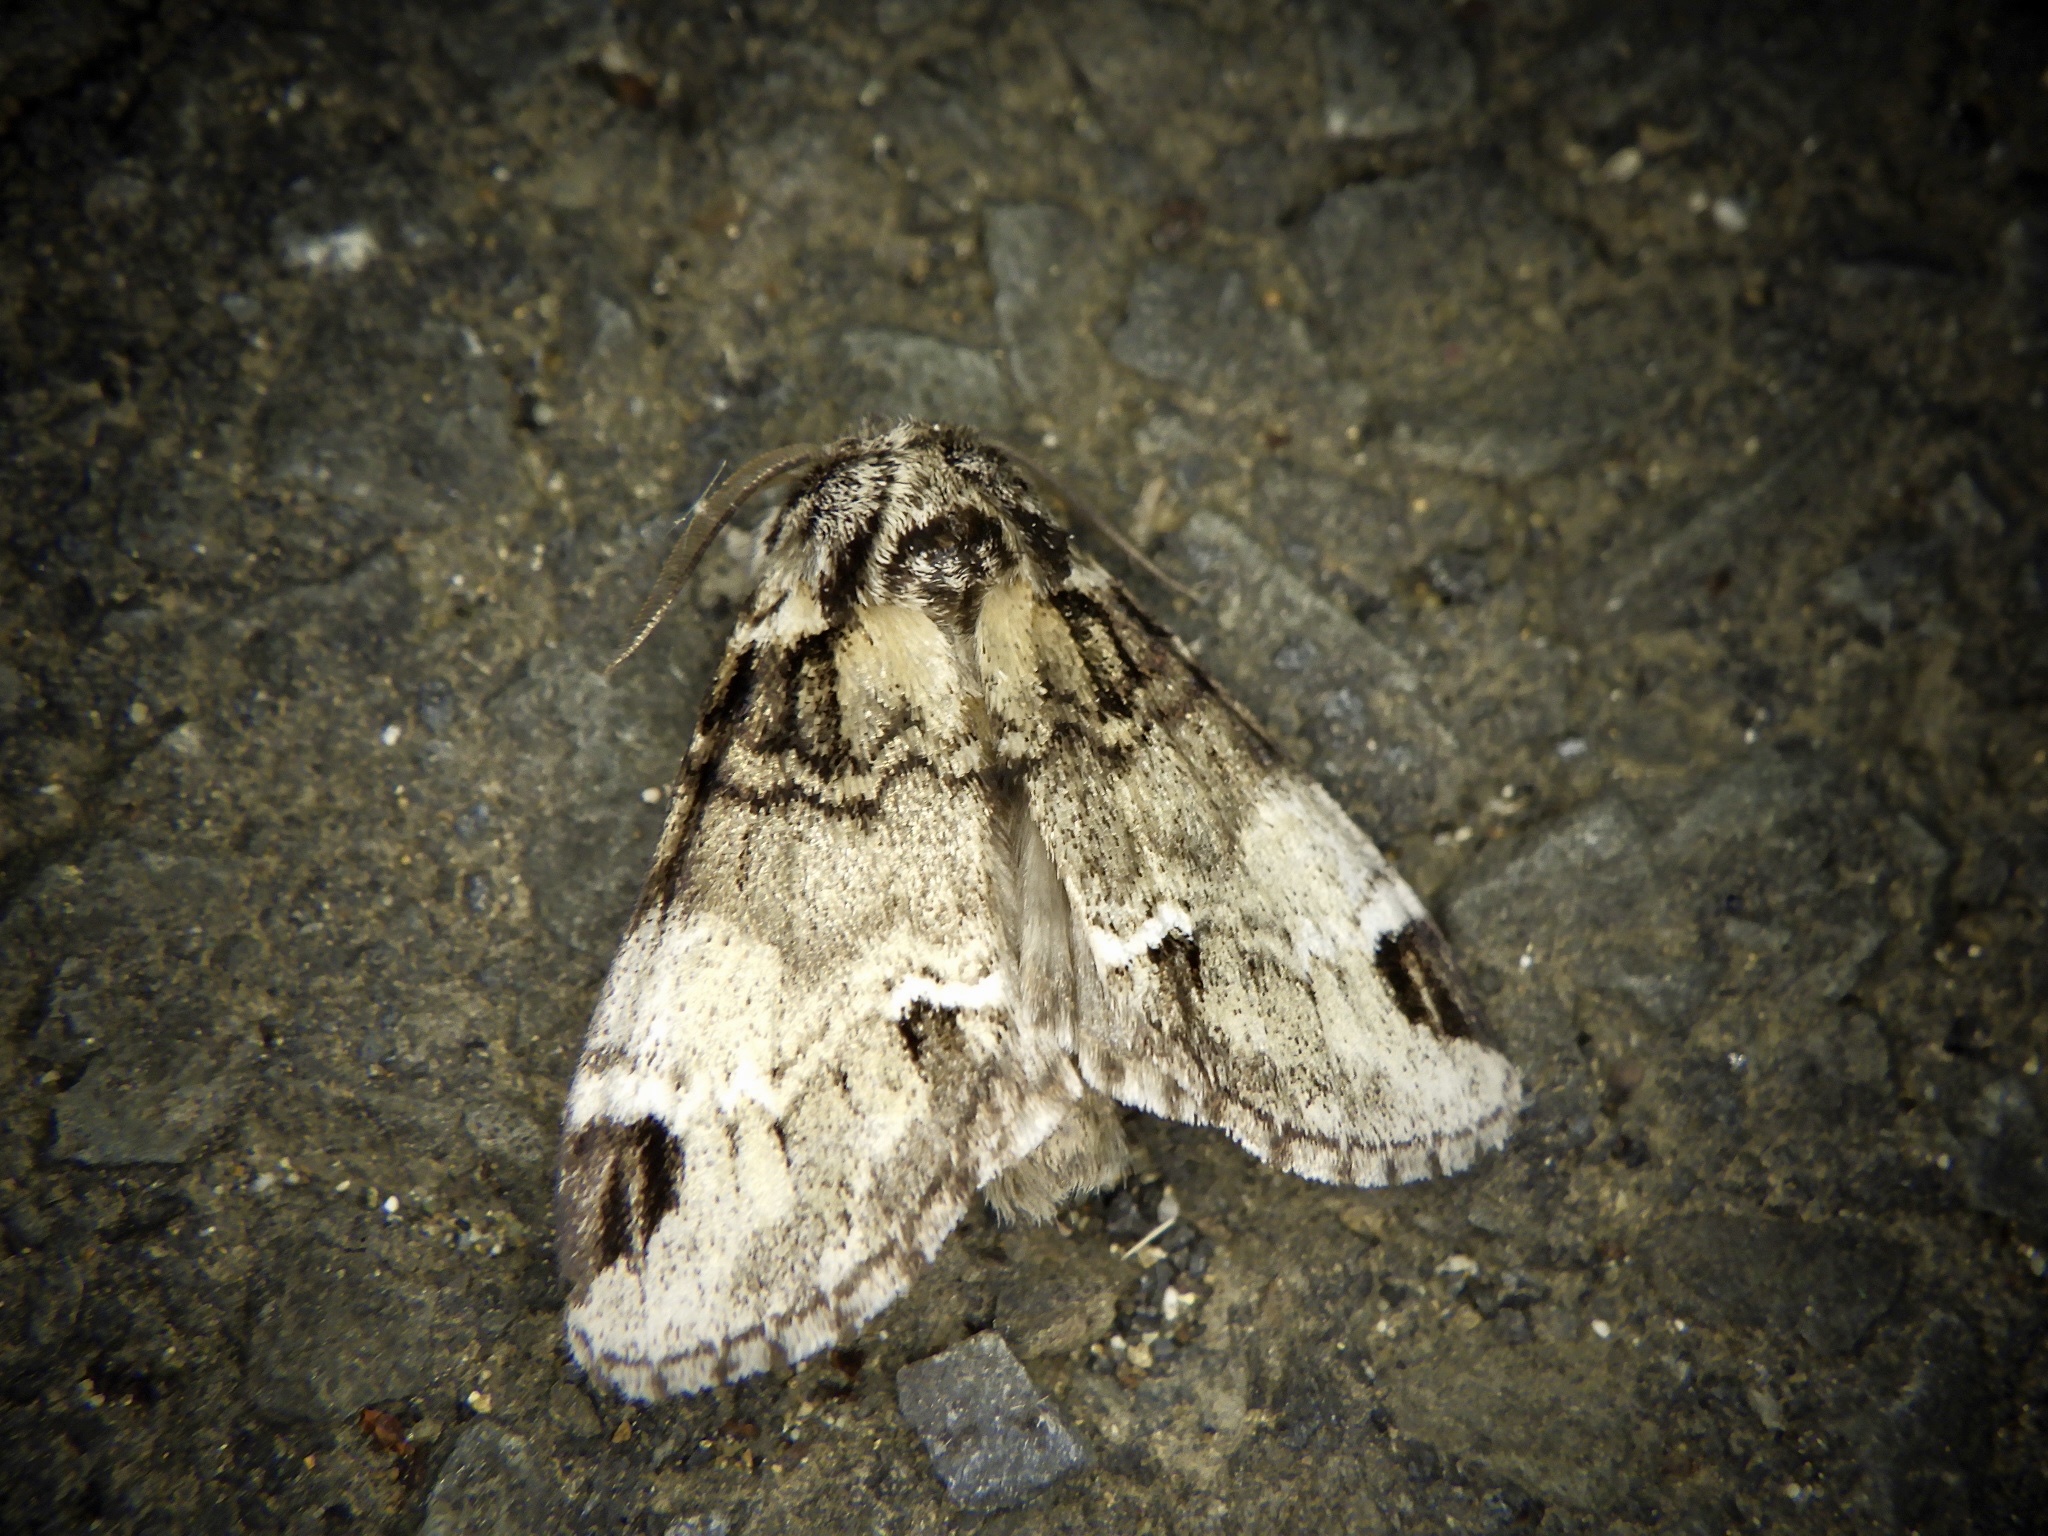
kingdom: Animalia
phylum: Arthropoda
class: Insecta
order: Lepidoptera
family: Notodontidae
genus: Drymonia
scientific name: Drymonia japonica
